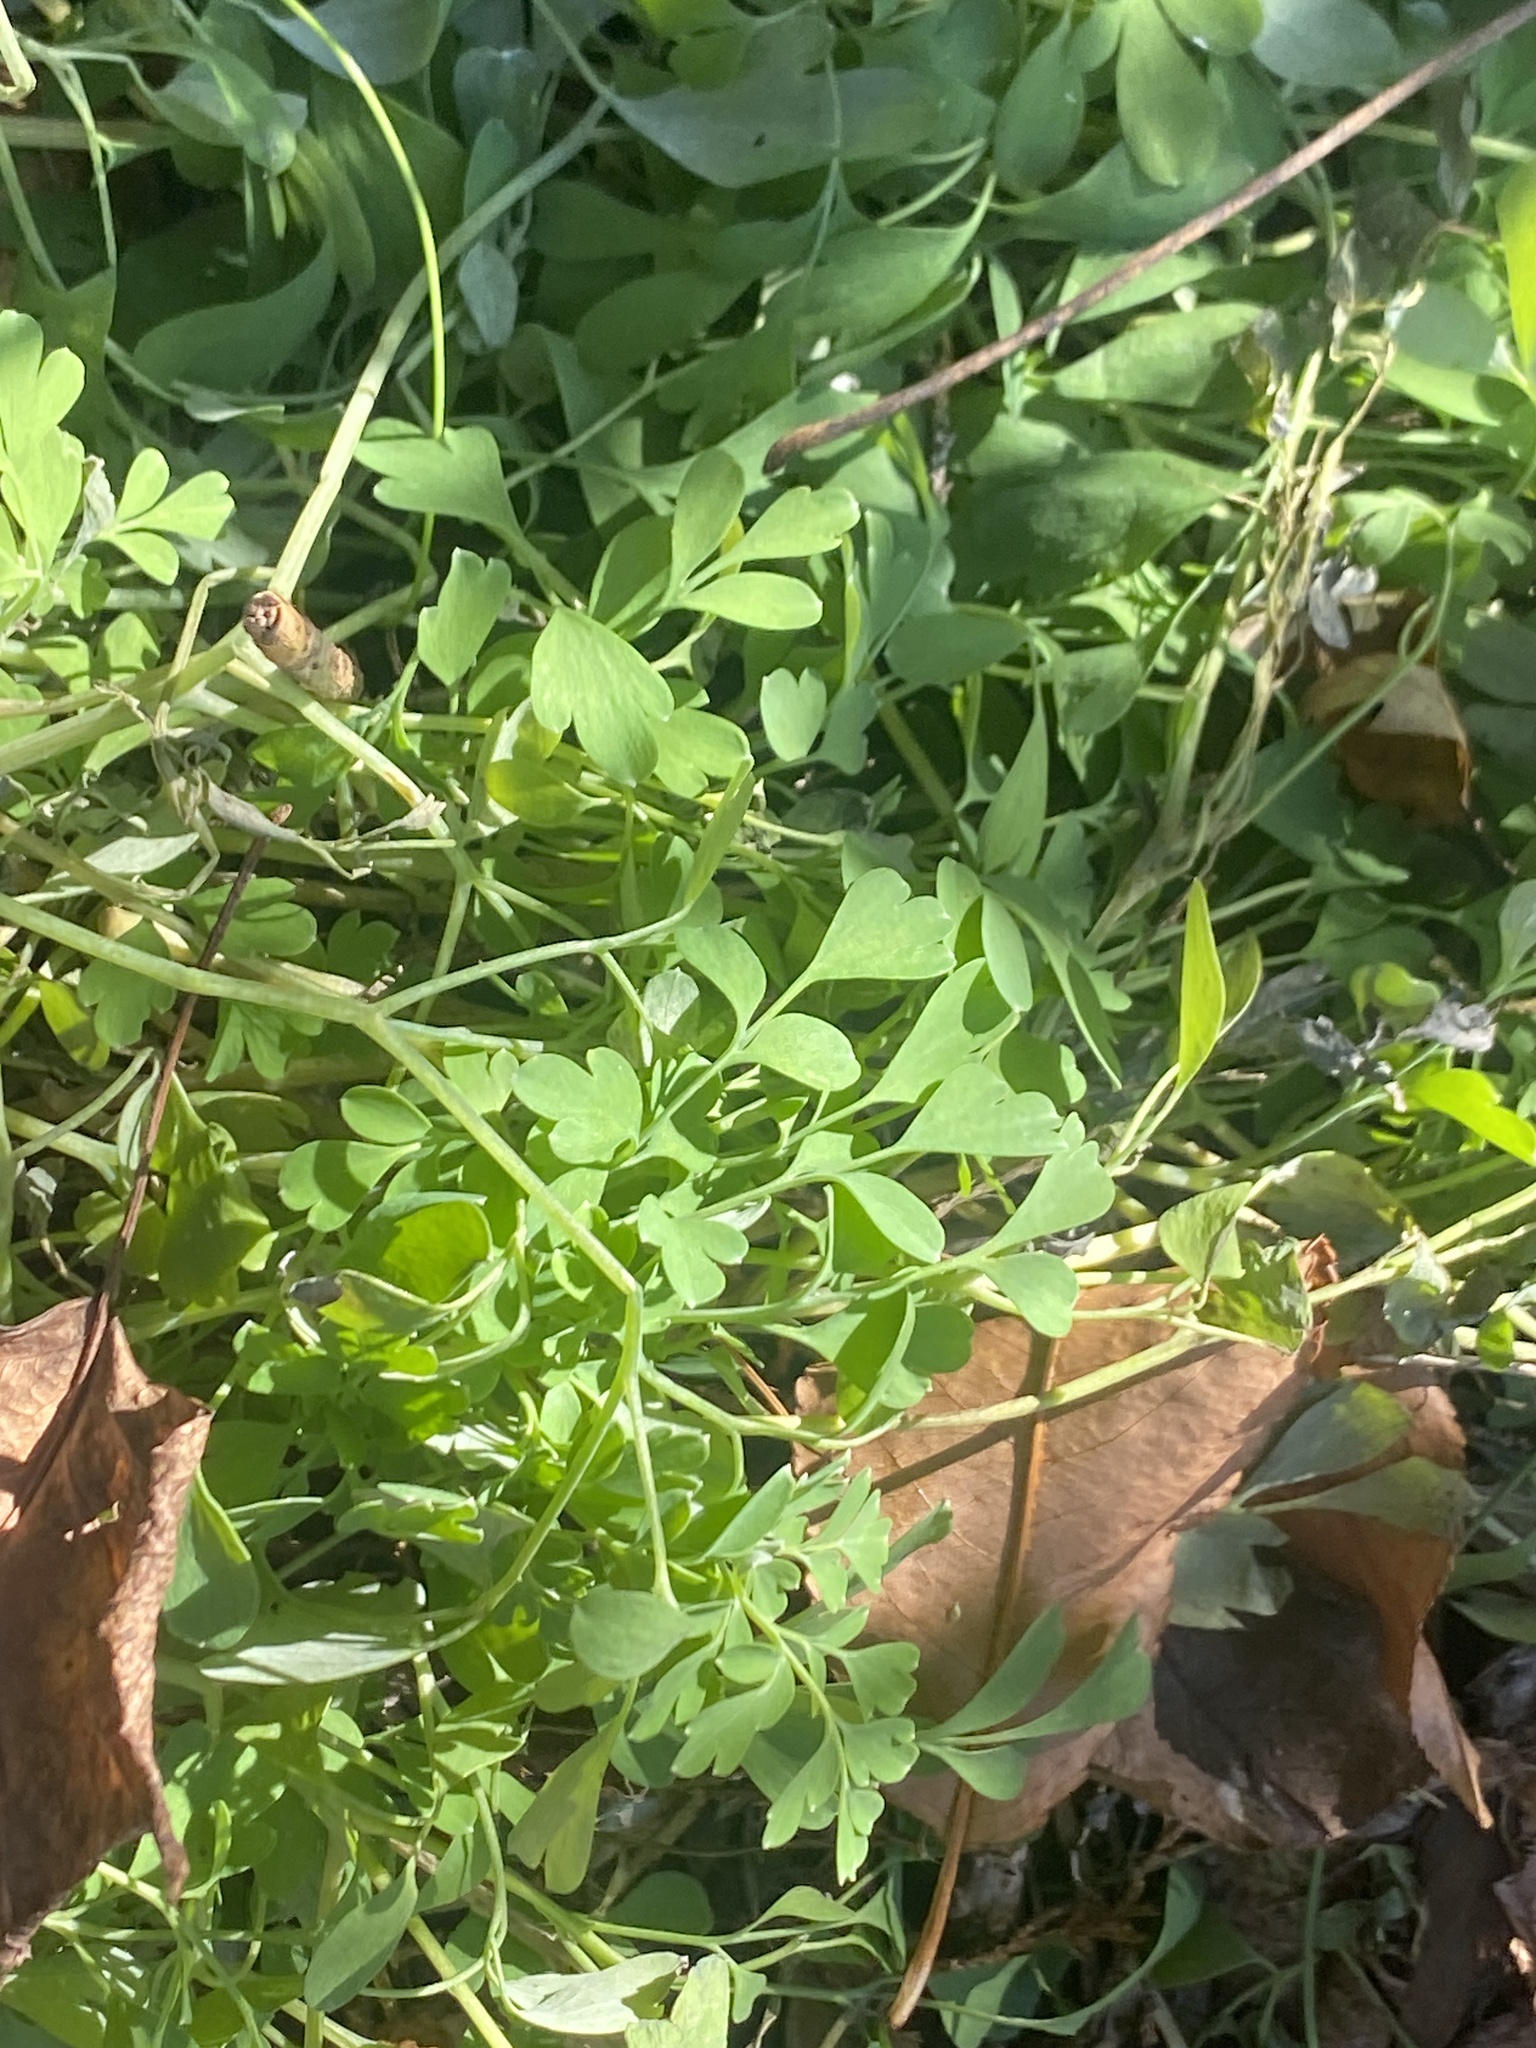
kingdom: Plantae
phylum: Tracheophyta
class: Magnoliopsida
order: Ranunculales
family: Papaveraceae
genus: Pseudofumaria
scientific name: Pseudofumaria lutea
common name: Yellow corydalis
